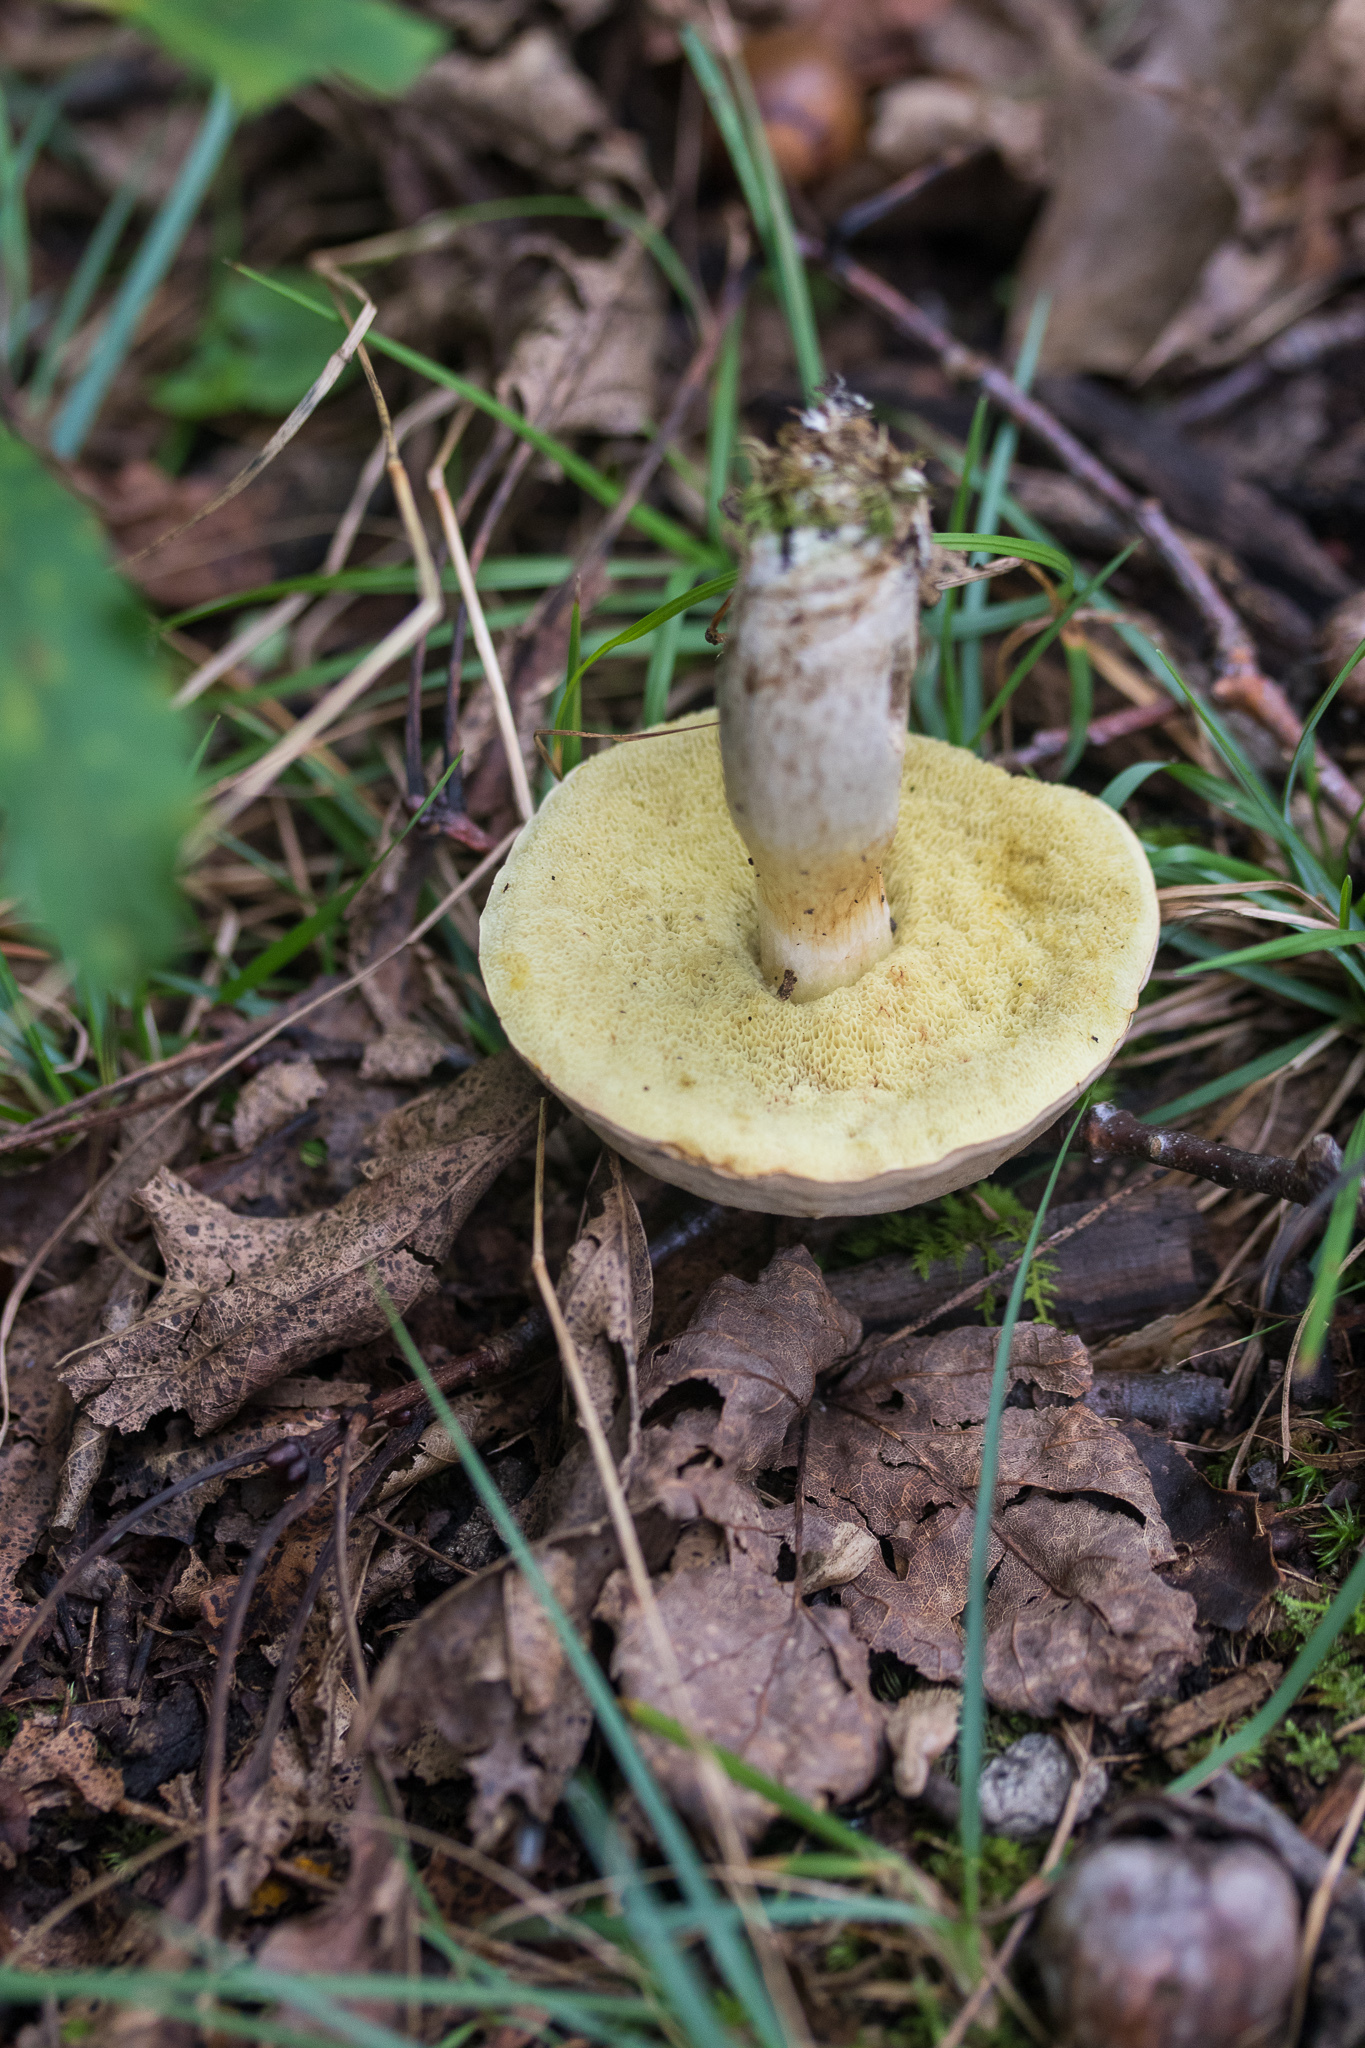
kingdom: Fungi
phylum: Basidiomycota
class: Agaricomycetes
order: Boletales
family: Boletaceae
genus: Imleria
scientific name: Imleria pallida
